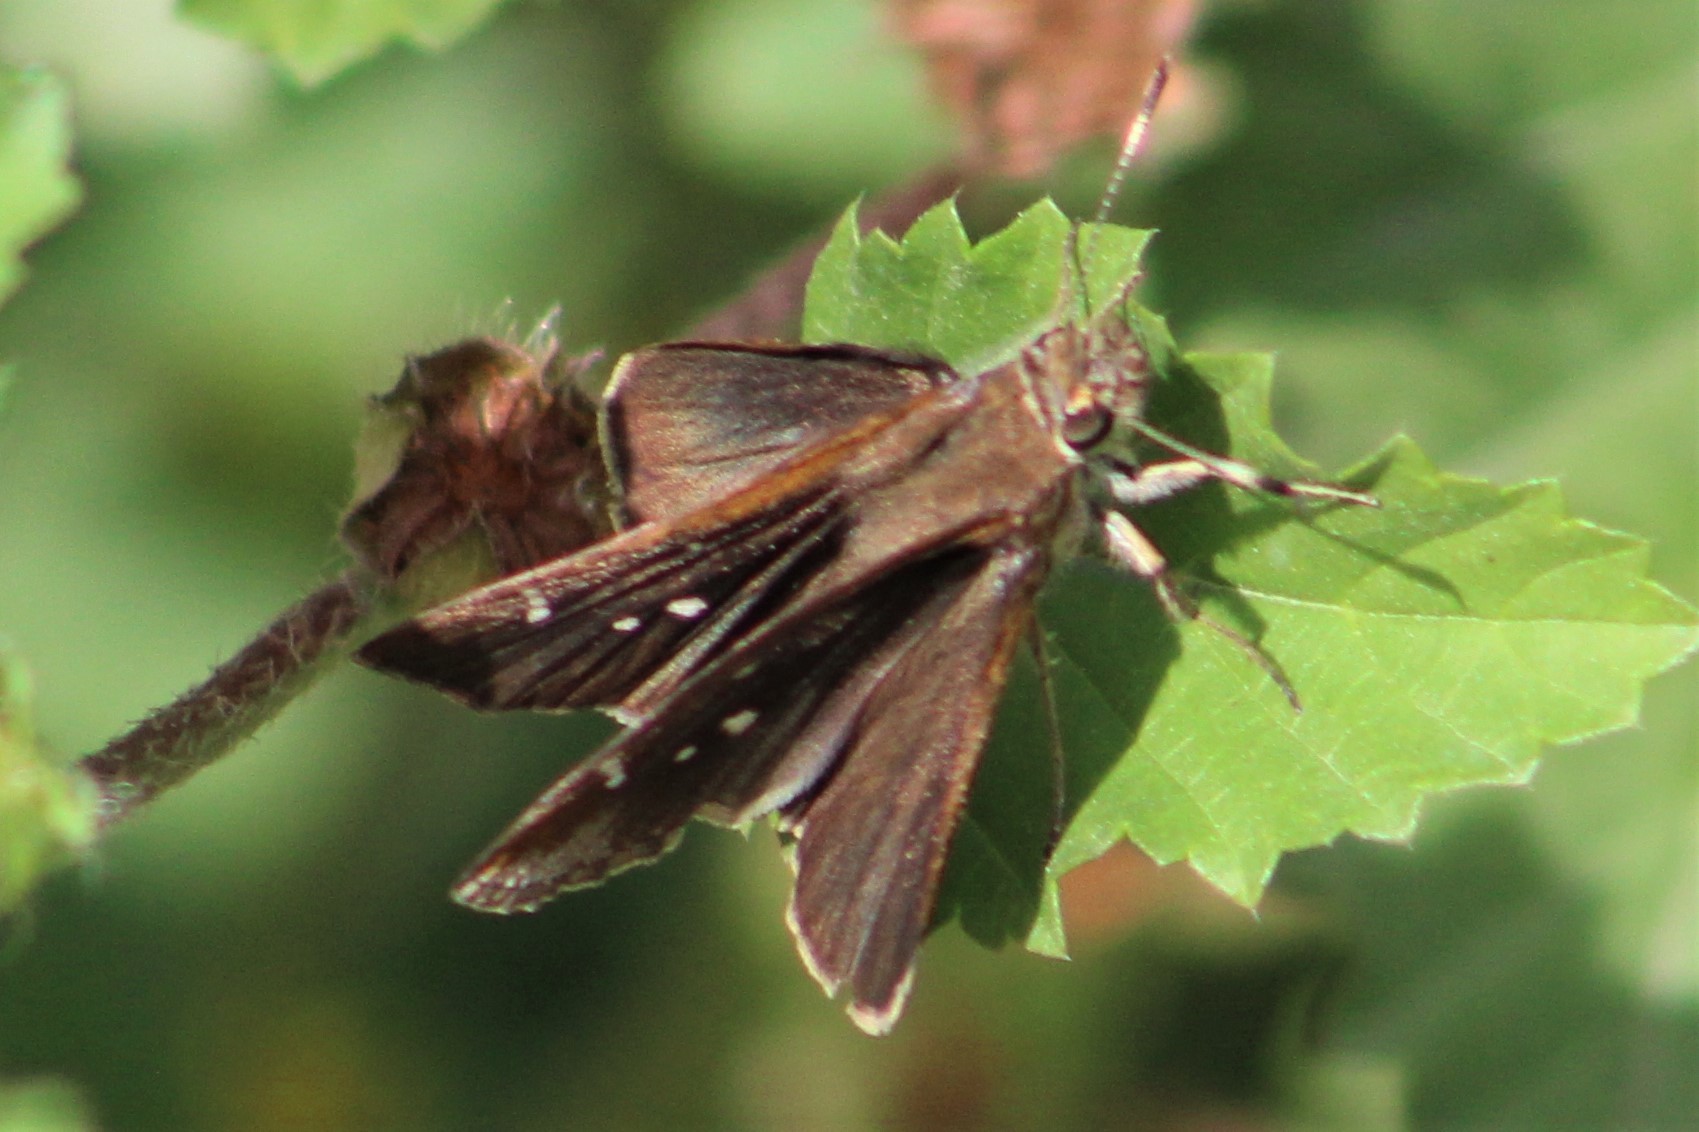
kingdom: Animalia
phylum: Arthropoda
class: Insecta
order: Lepidoptera
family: Hesperiidae
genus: Lerema
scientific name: Lerema accius
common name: Clouded skipper
